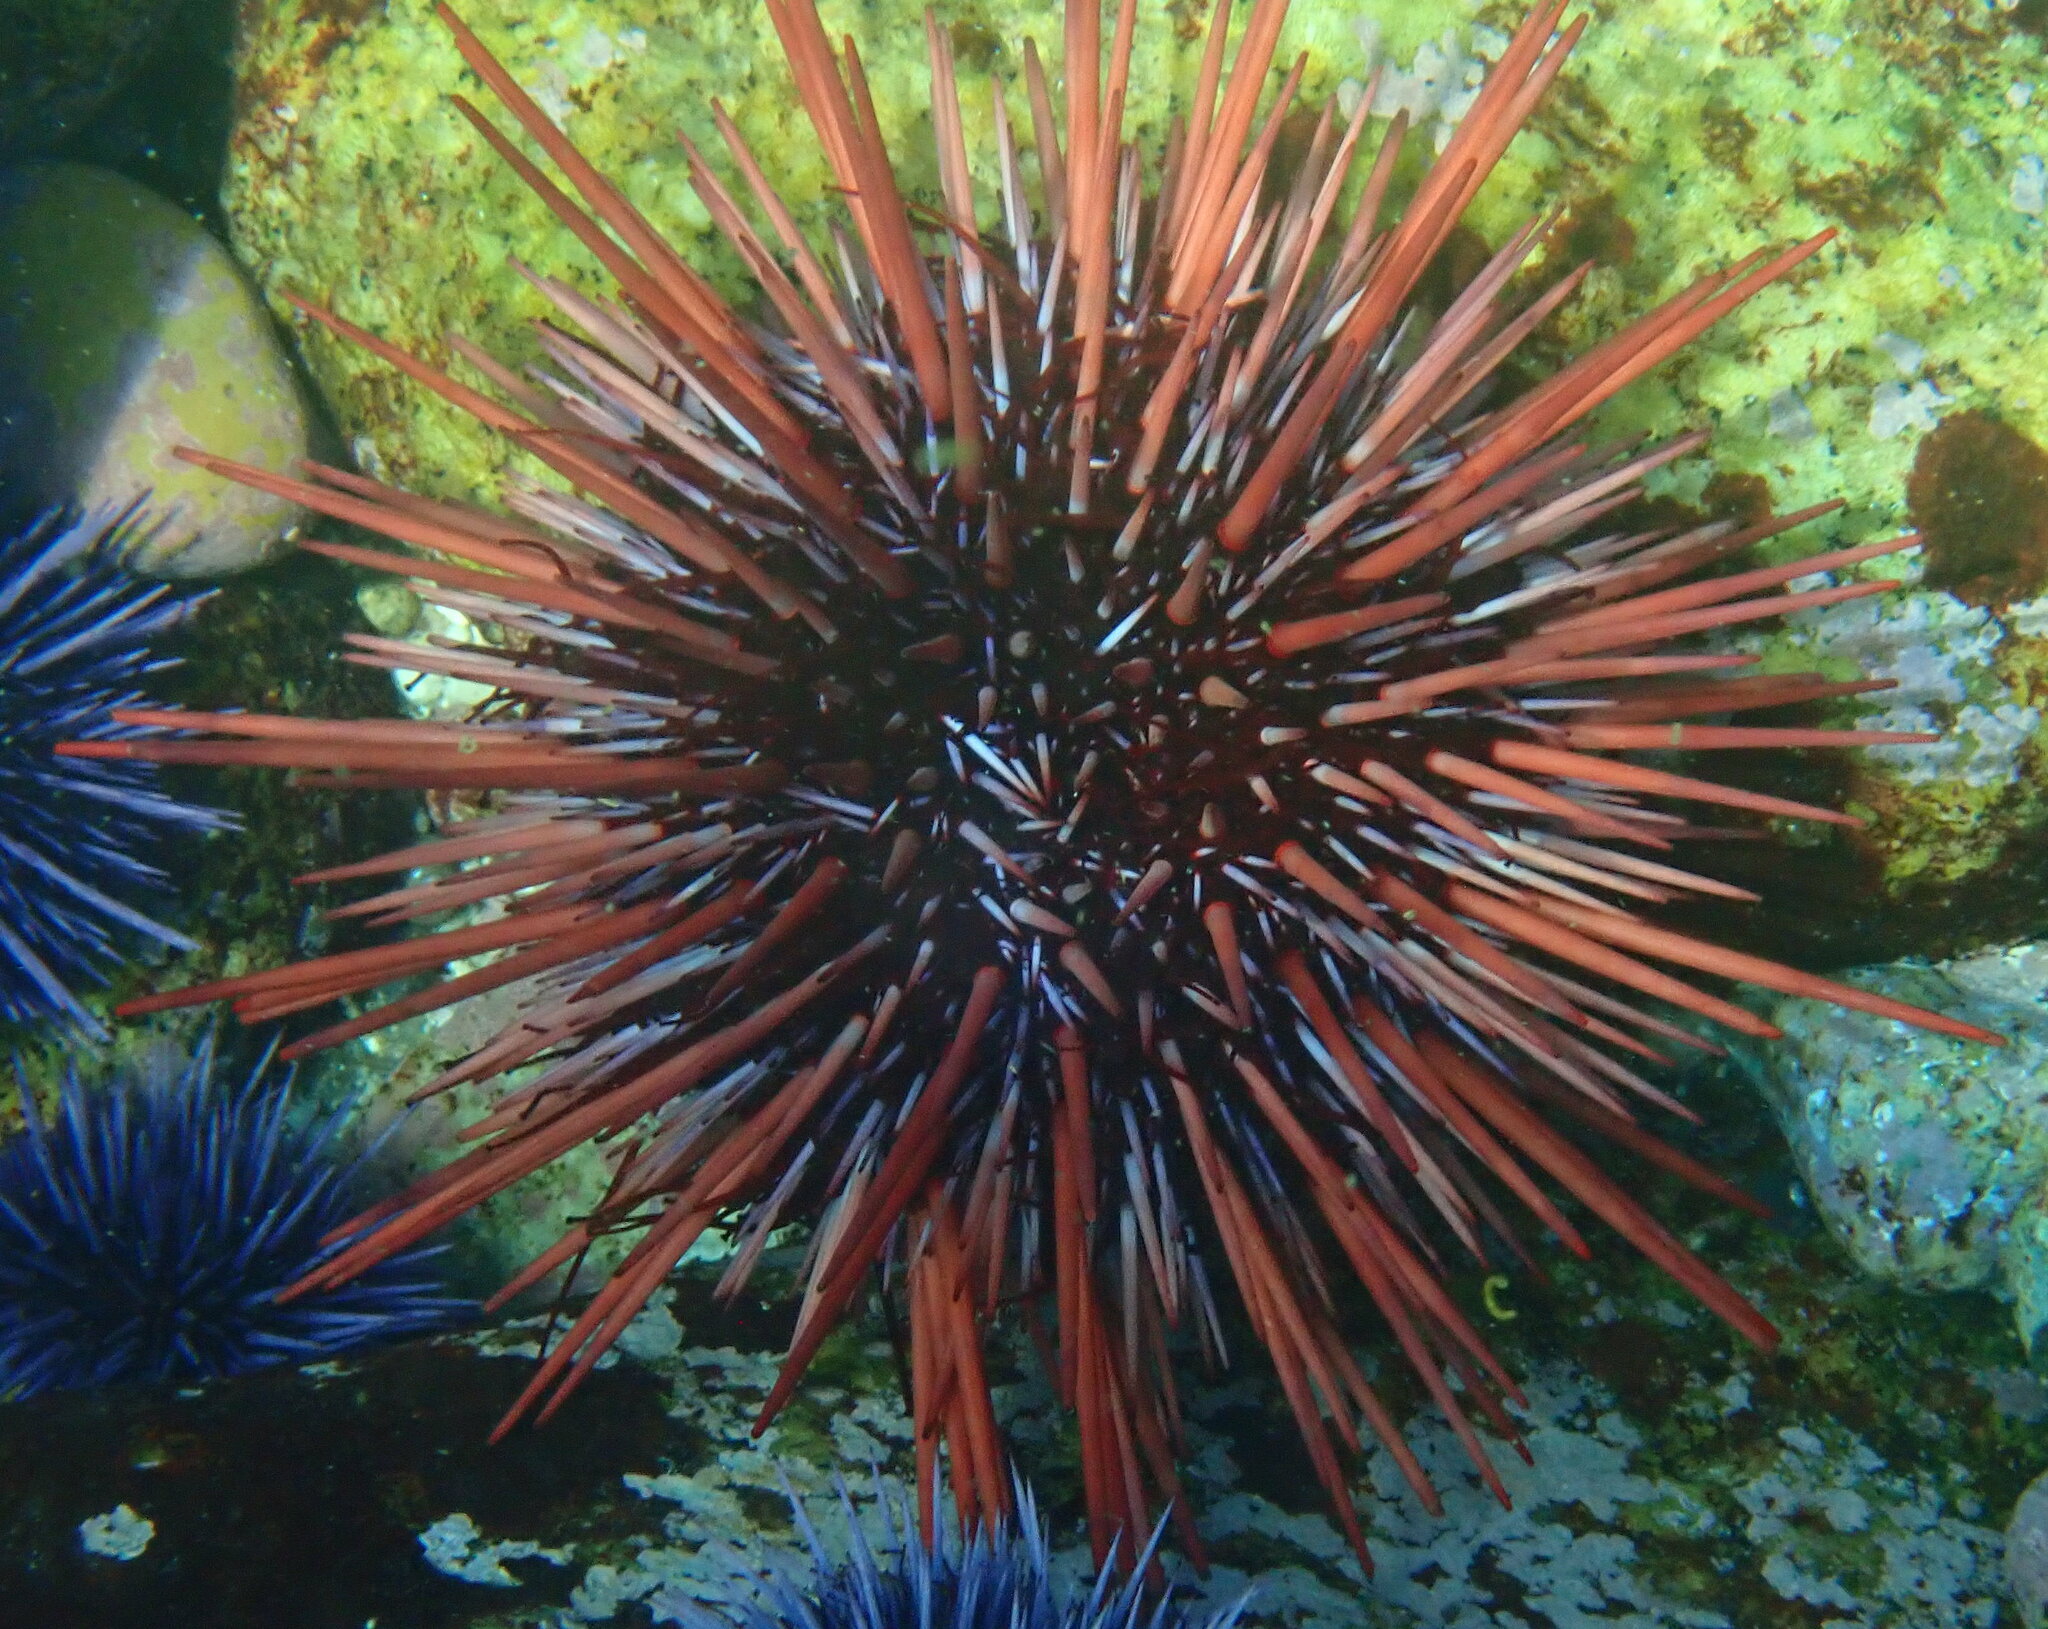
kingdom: Animalia
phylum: Echinodermata
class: Echinoidea
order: Camarodonta
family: Strongylocentrotidae
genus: Mesocentrotus
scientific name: Mesocentrotus franciscanus
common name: Red sea urchin
